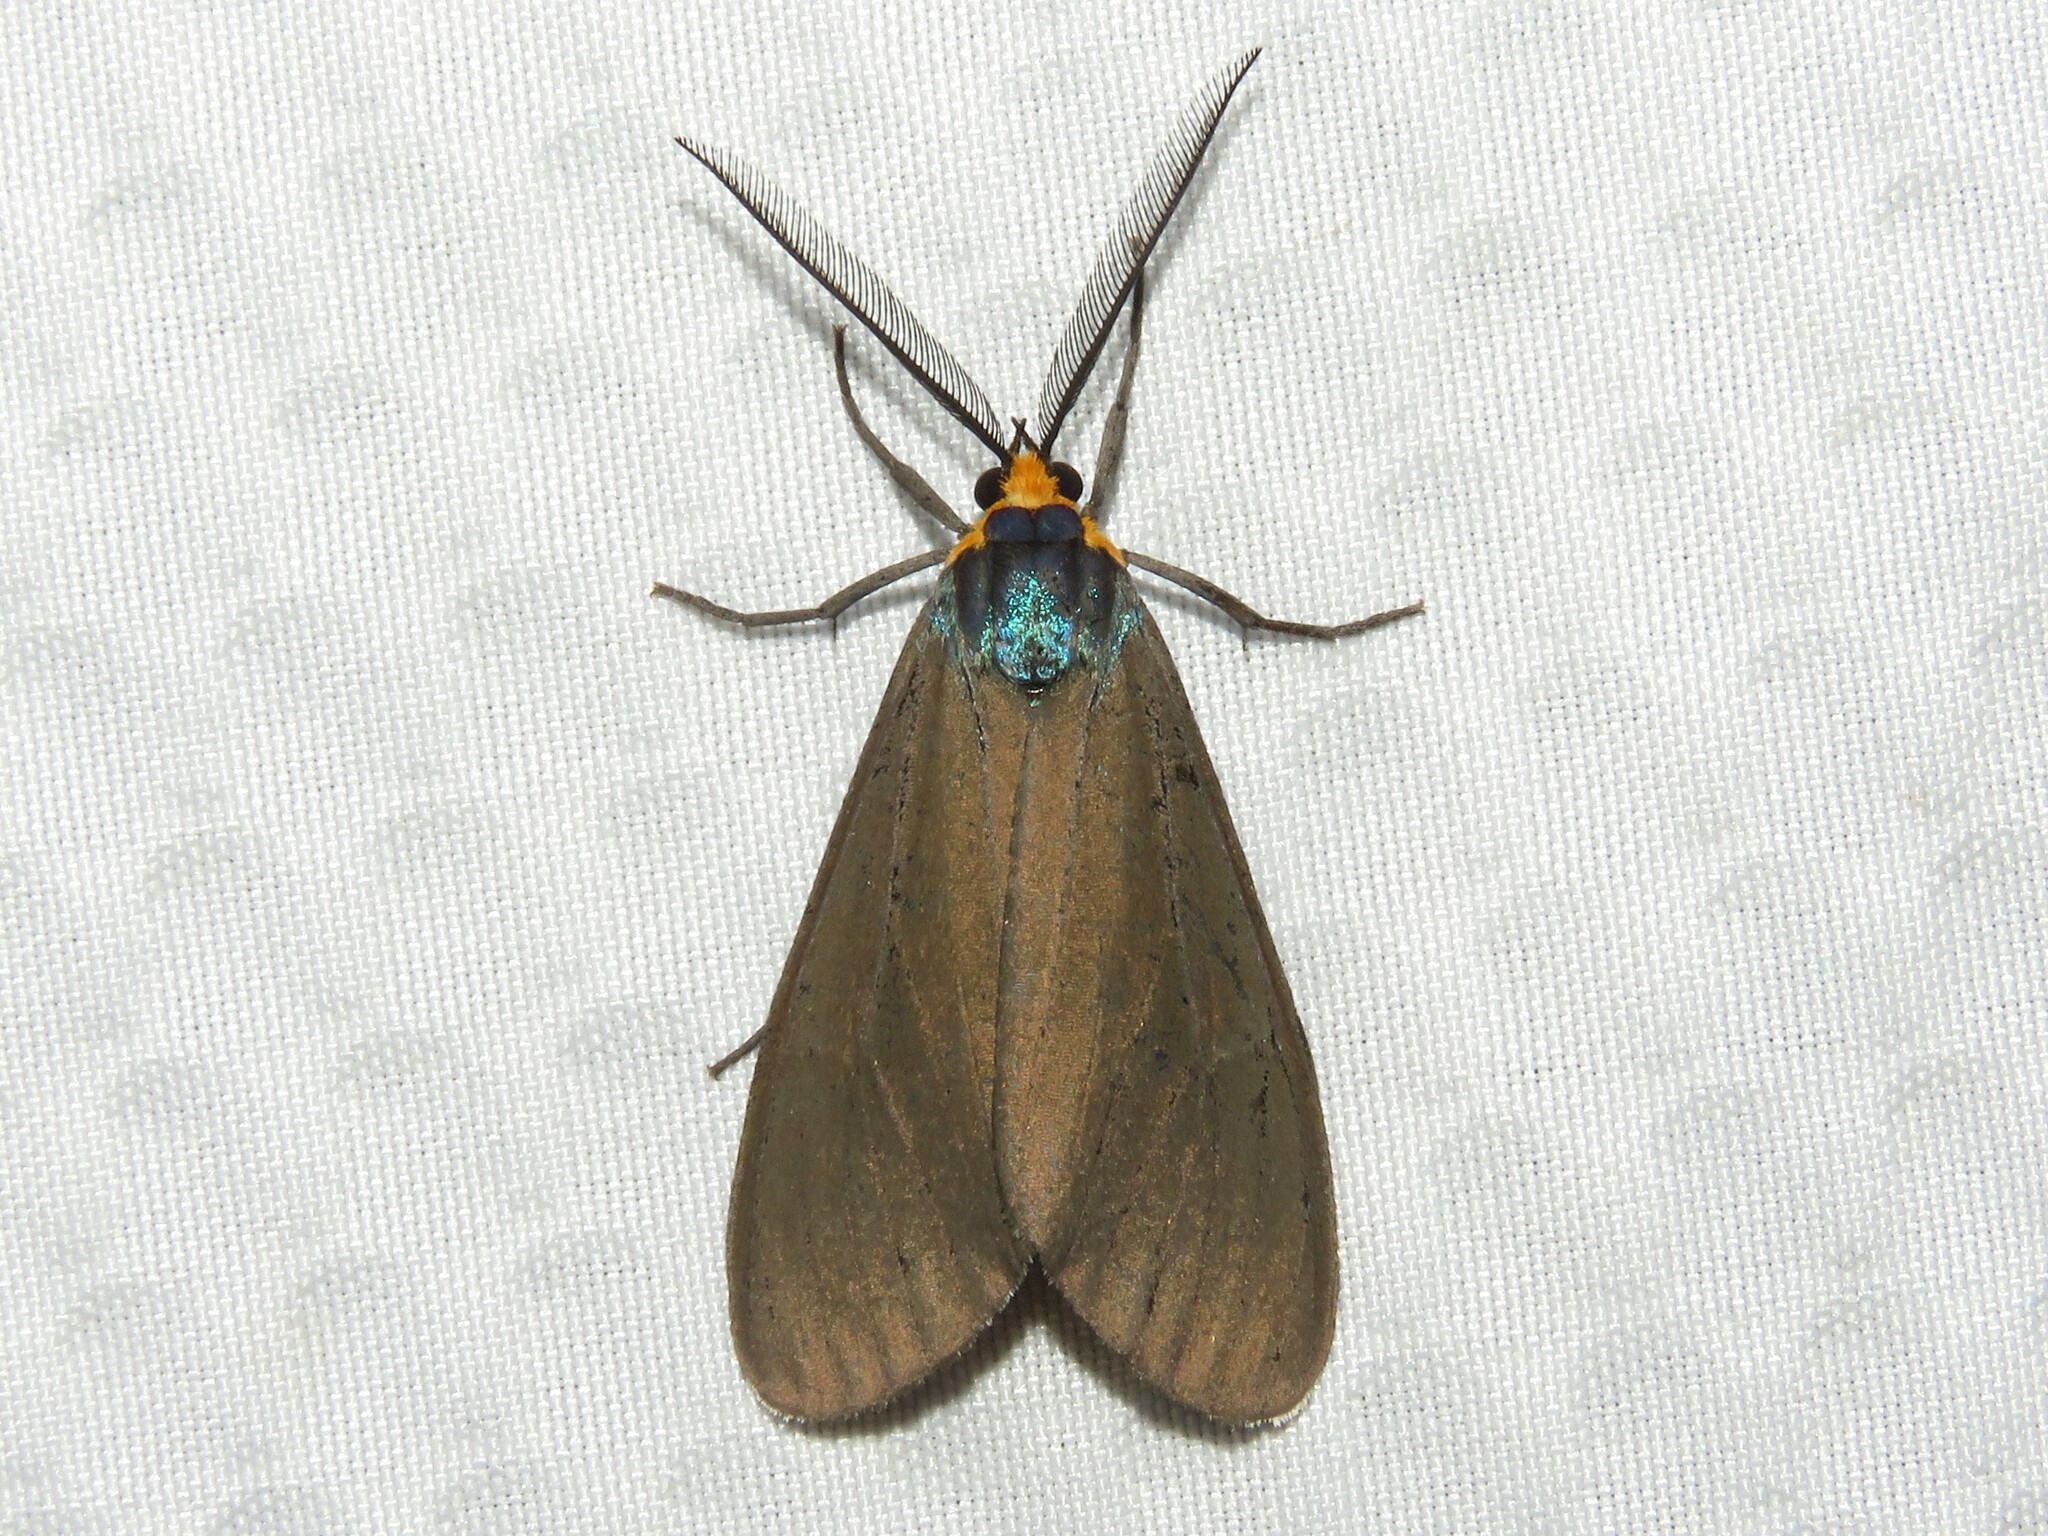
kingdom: Animalia
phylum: Arthropoda
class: Insecta
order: Lepidoptera
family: Erebidae
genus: Ctenucha
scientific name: Ctenucha virginica
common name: Virginia ctenucha moth
